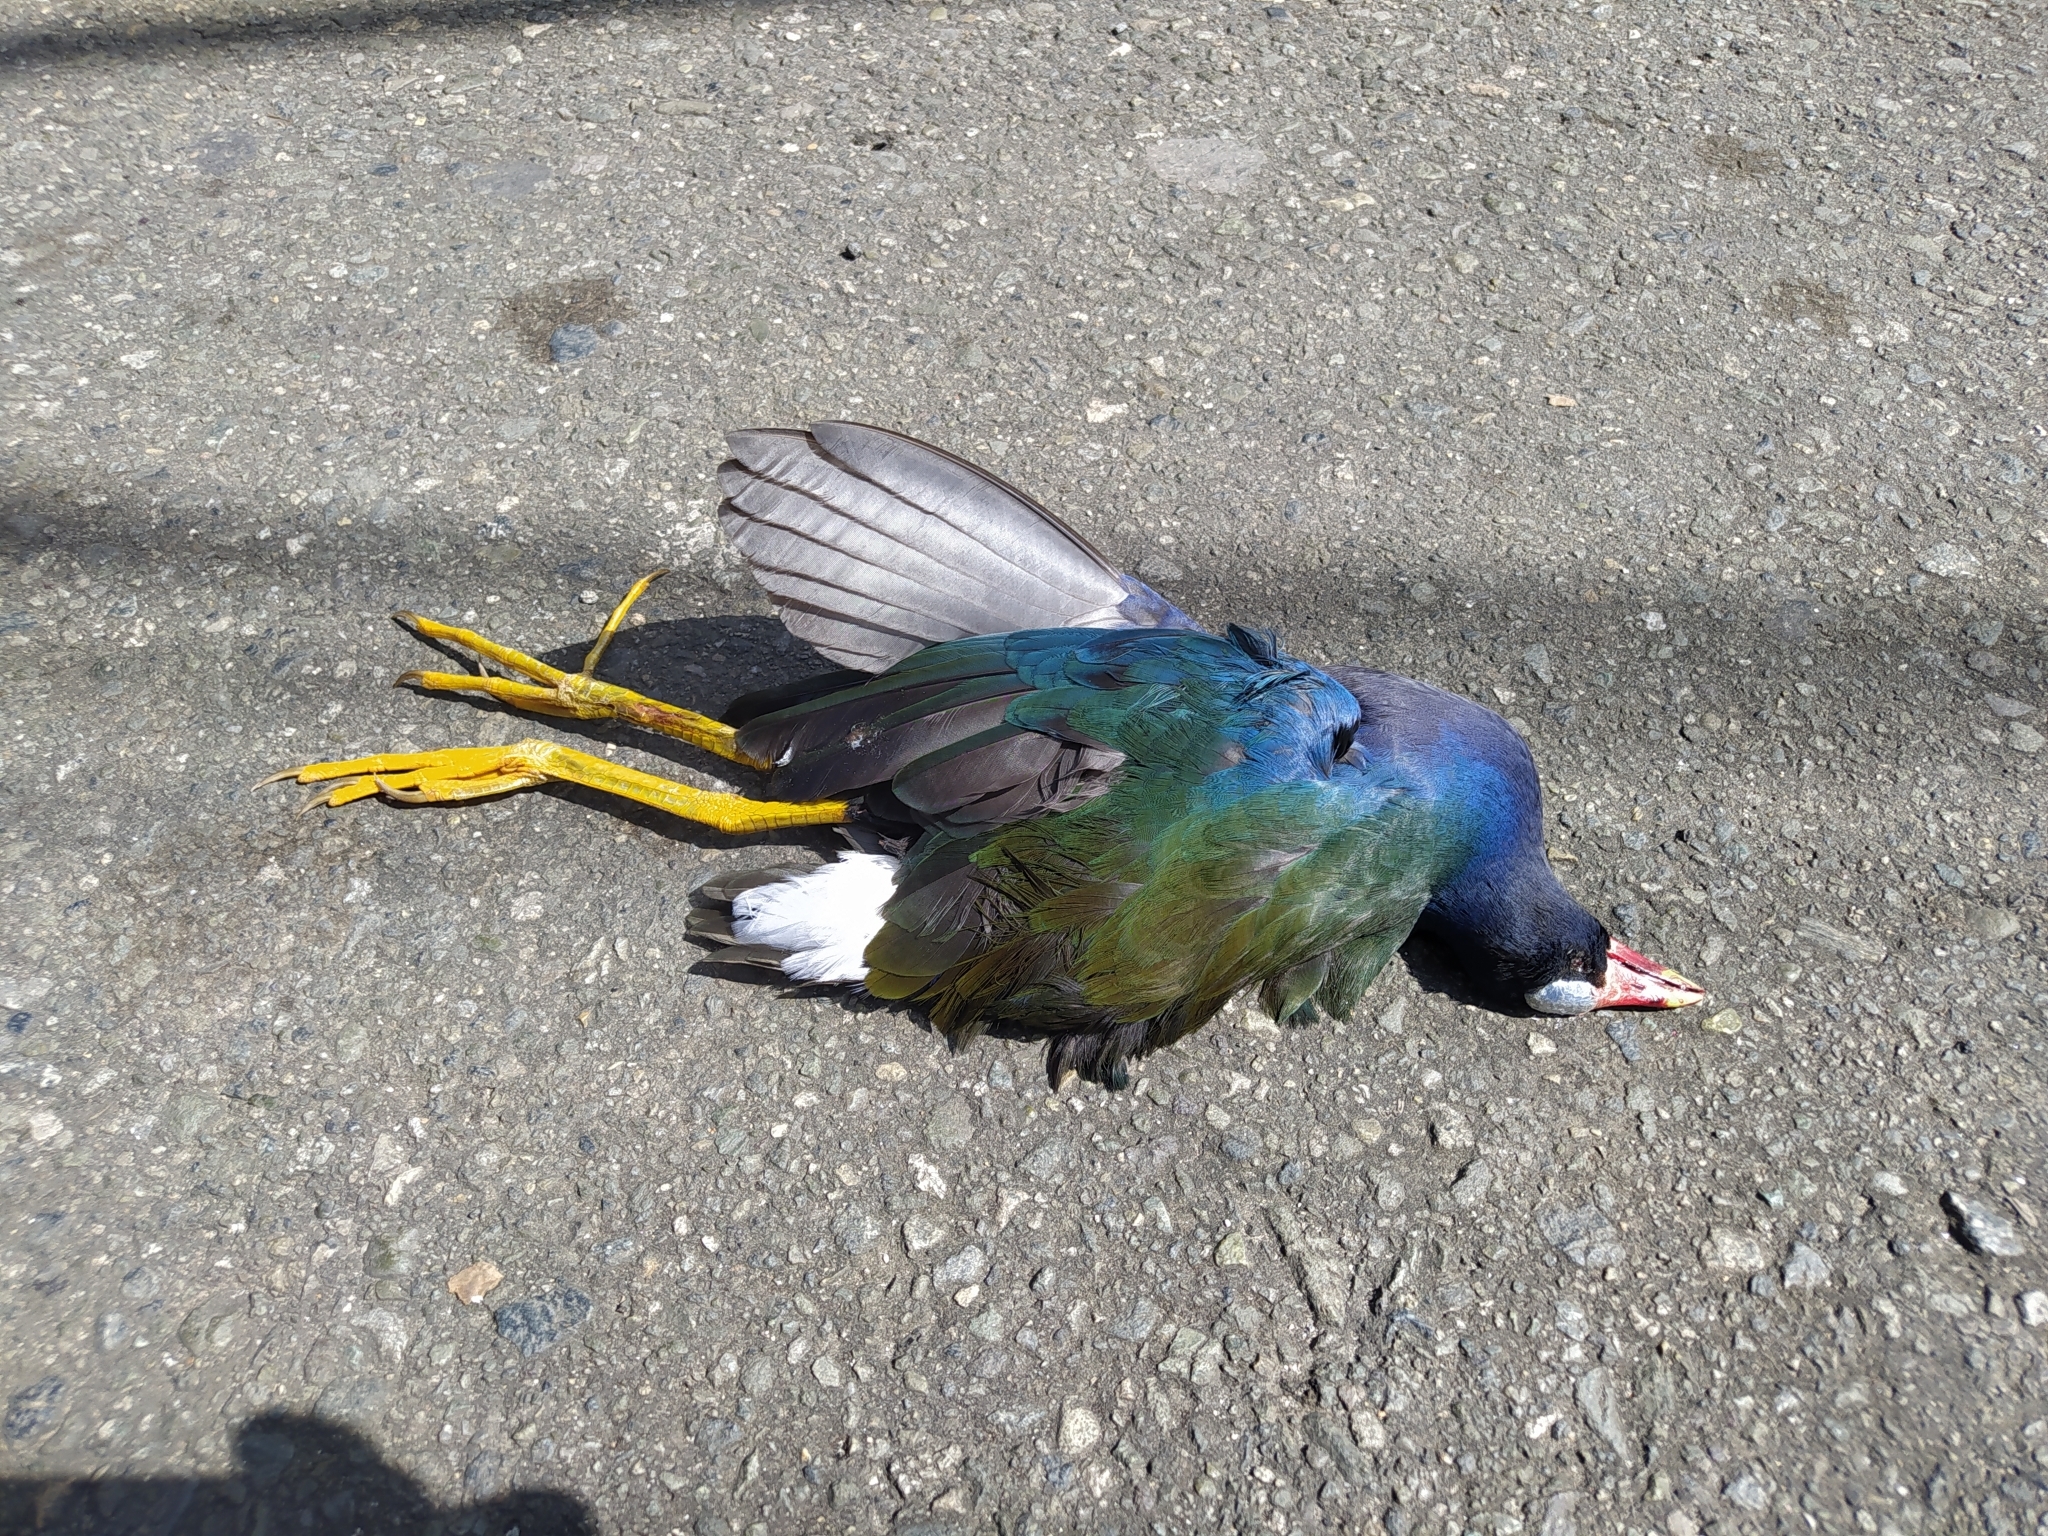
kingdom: Animalia
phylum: Chordata
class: Aves
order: Gruiformes
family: Rallidae
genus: Porphyrio
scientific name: Porphyrio martinica
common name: Purple gallinule
